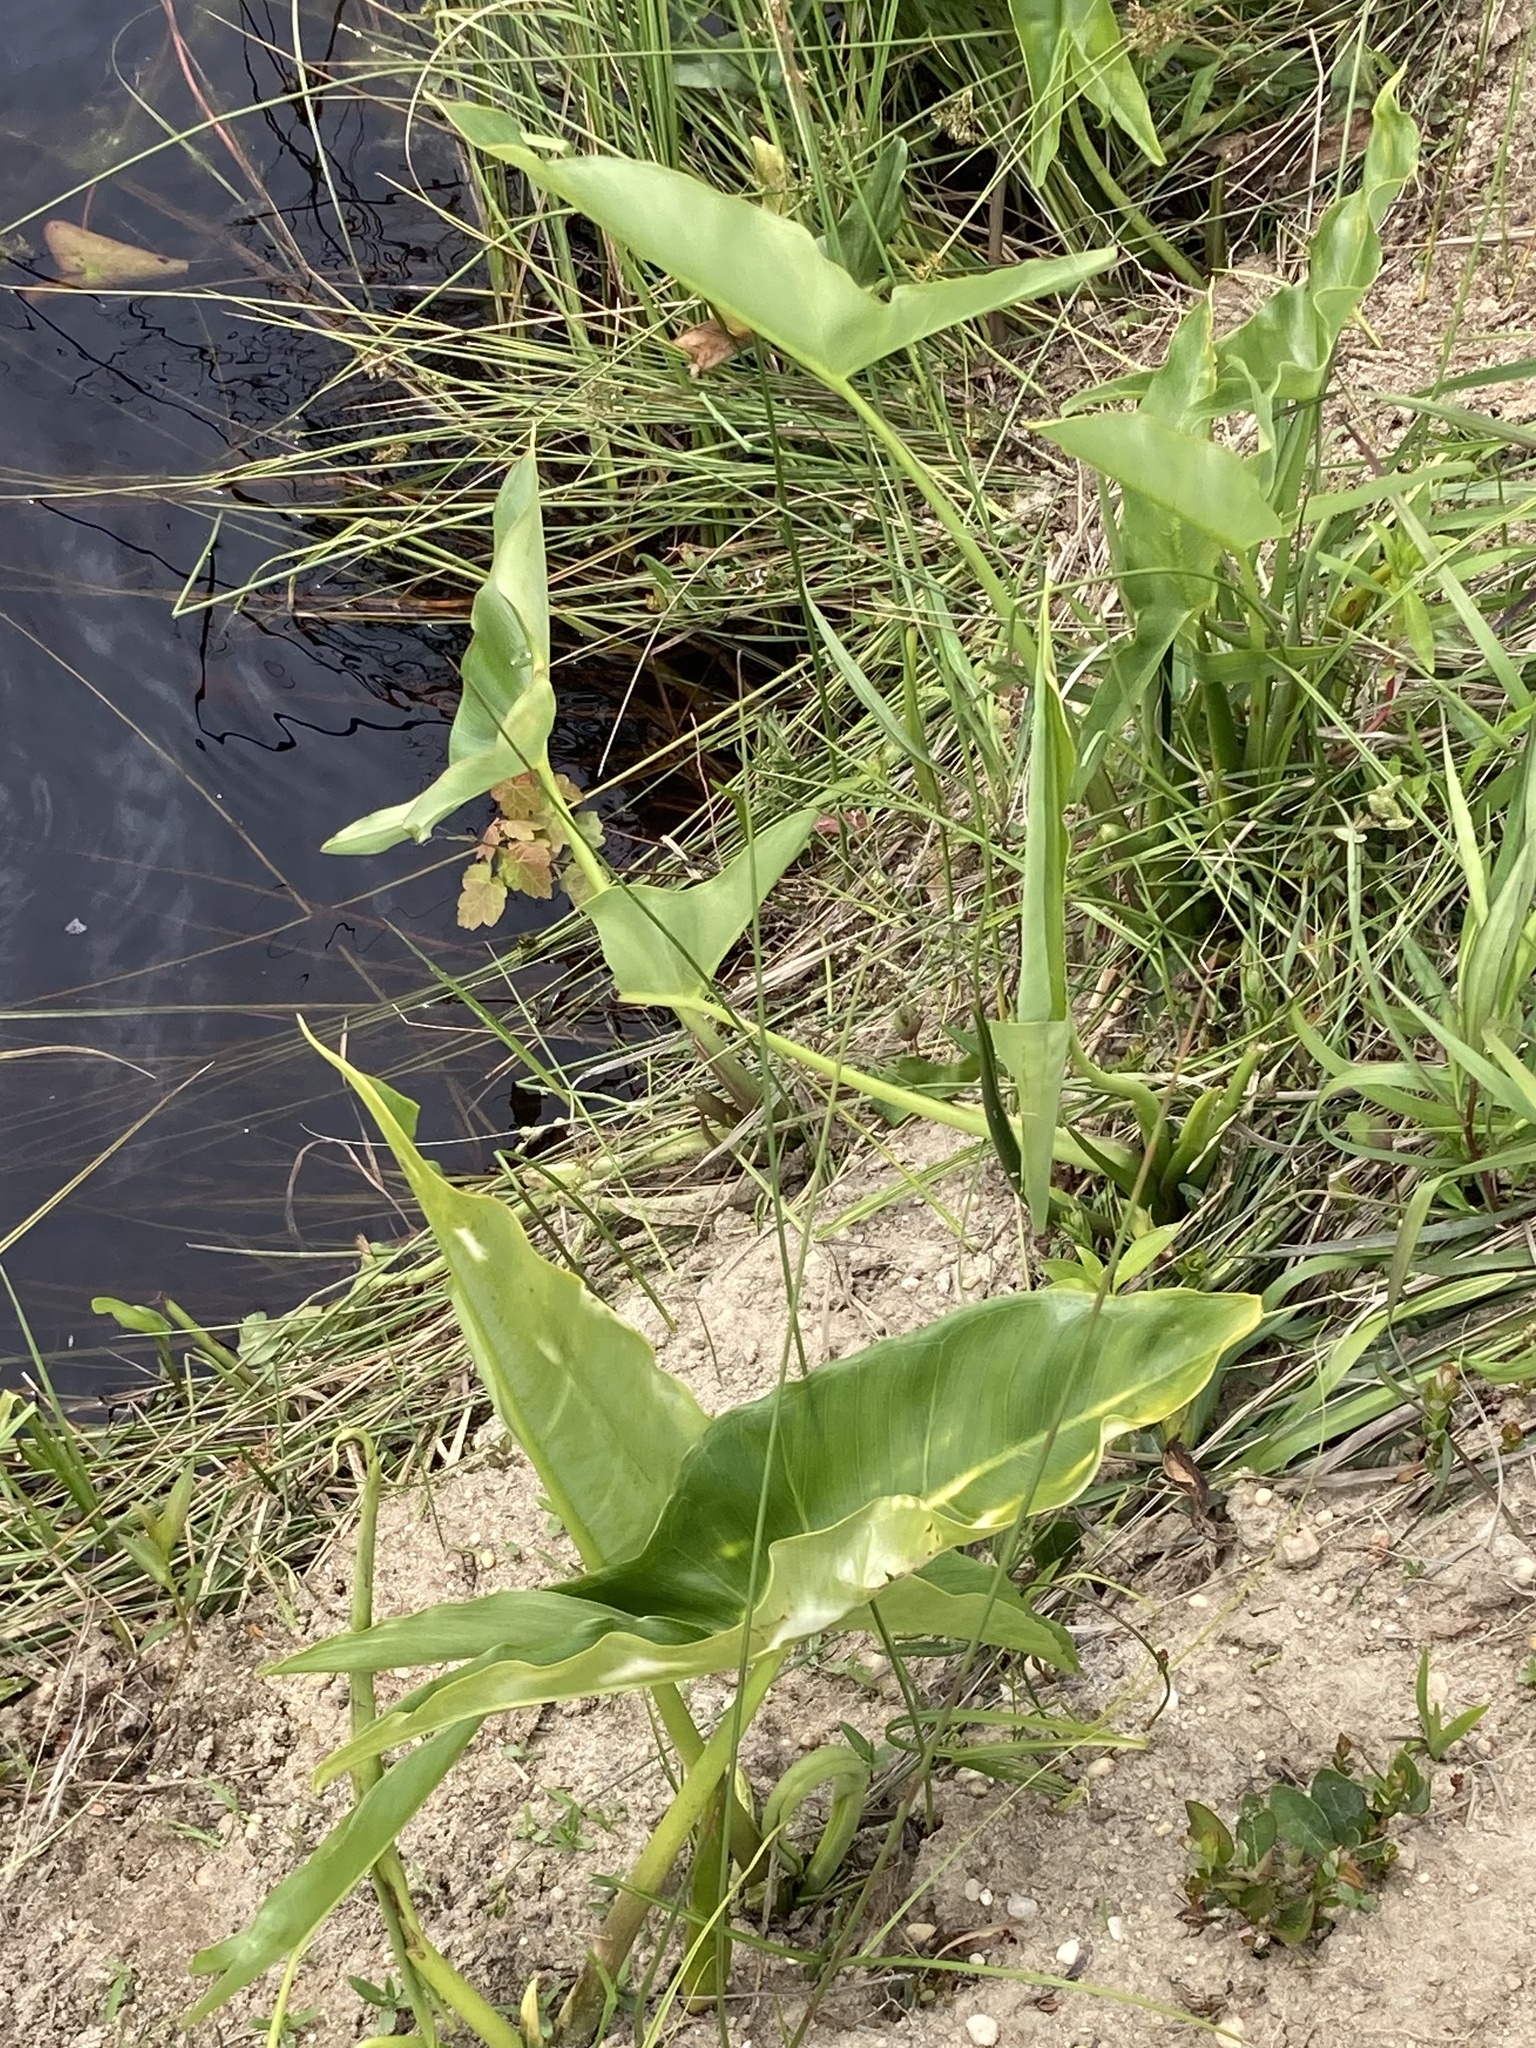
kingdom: Plantae
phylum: Tracheophyta
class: Liliopsida
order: Alismatales
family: Araceae
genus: Peltandra
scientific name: Peltandra virginica
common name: Arrow arum
